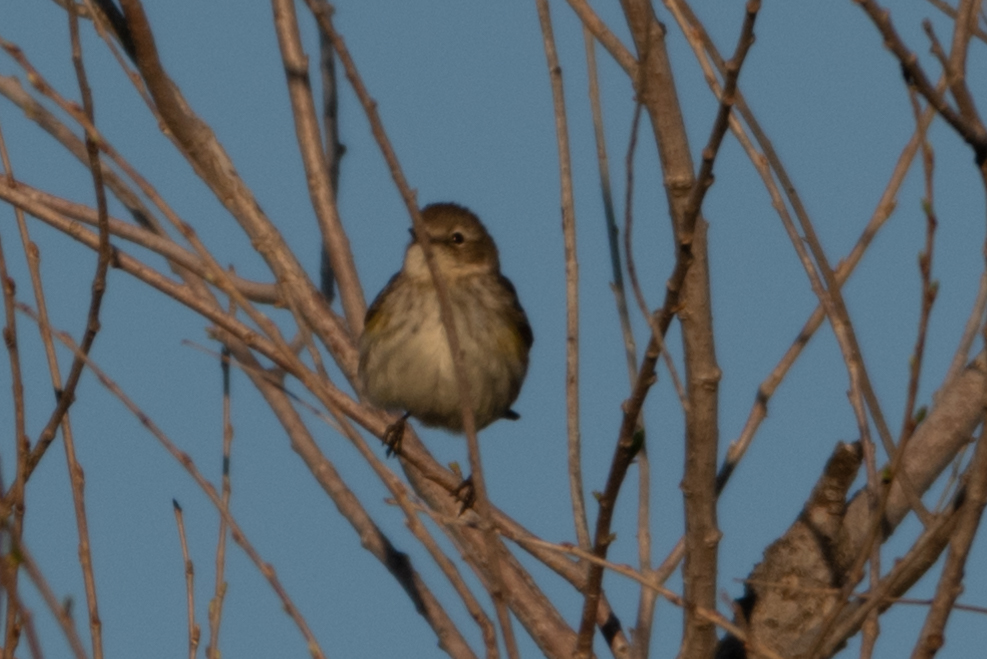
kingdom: Animalia
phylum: Chordata
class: Aves
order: Passeriformes
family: Parulidae
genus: Setophaga
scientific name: Setophaga coronata
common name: Myrtle warbler
